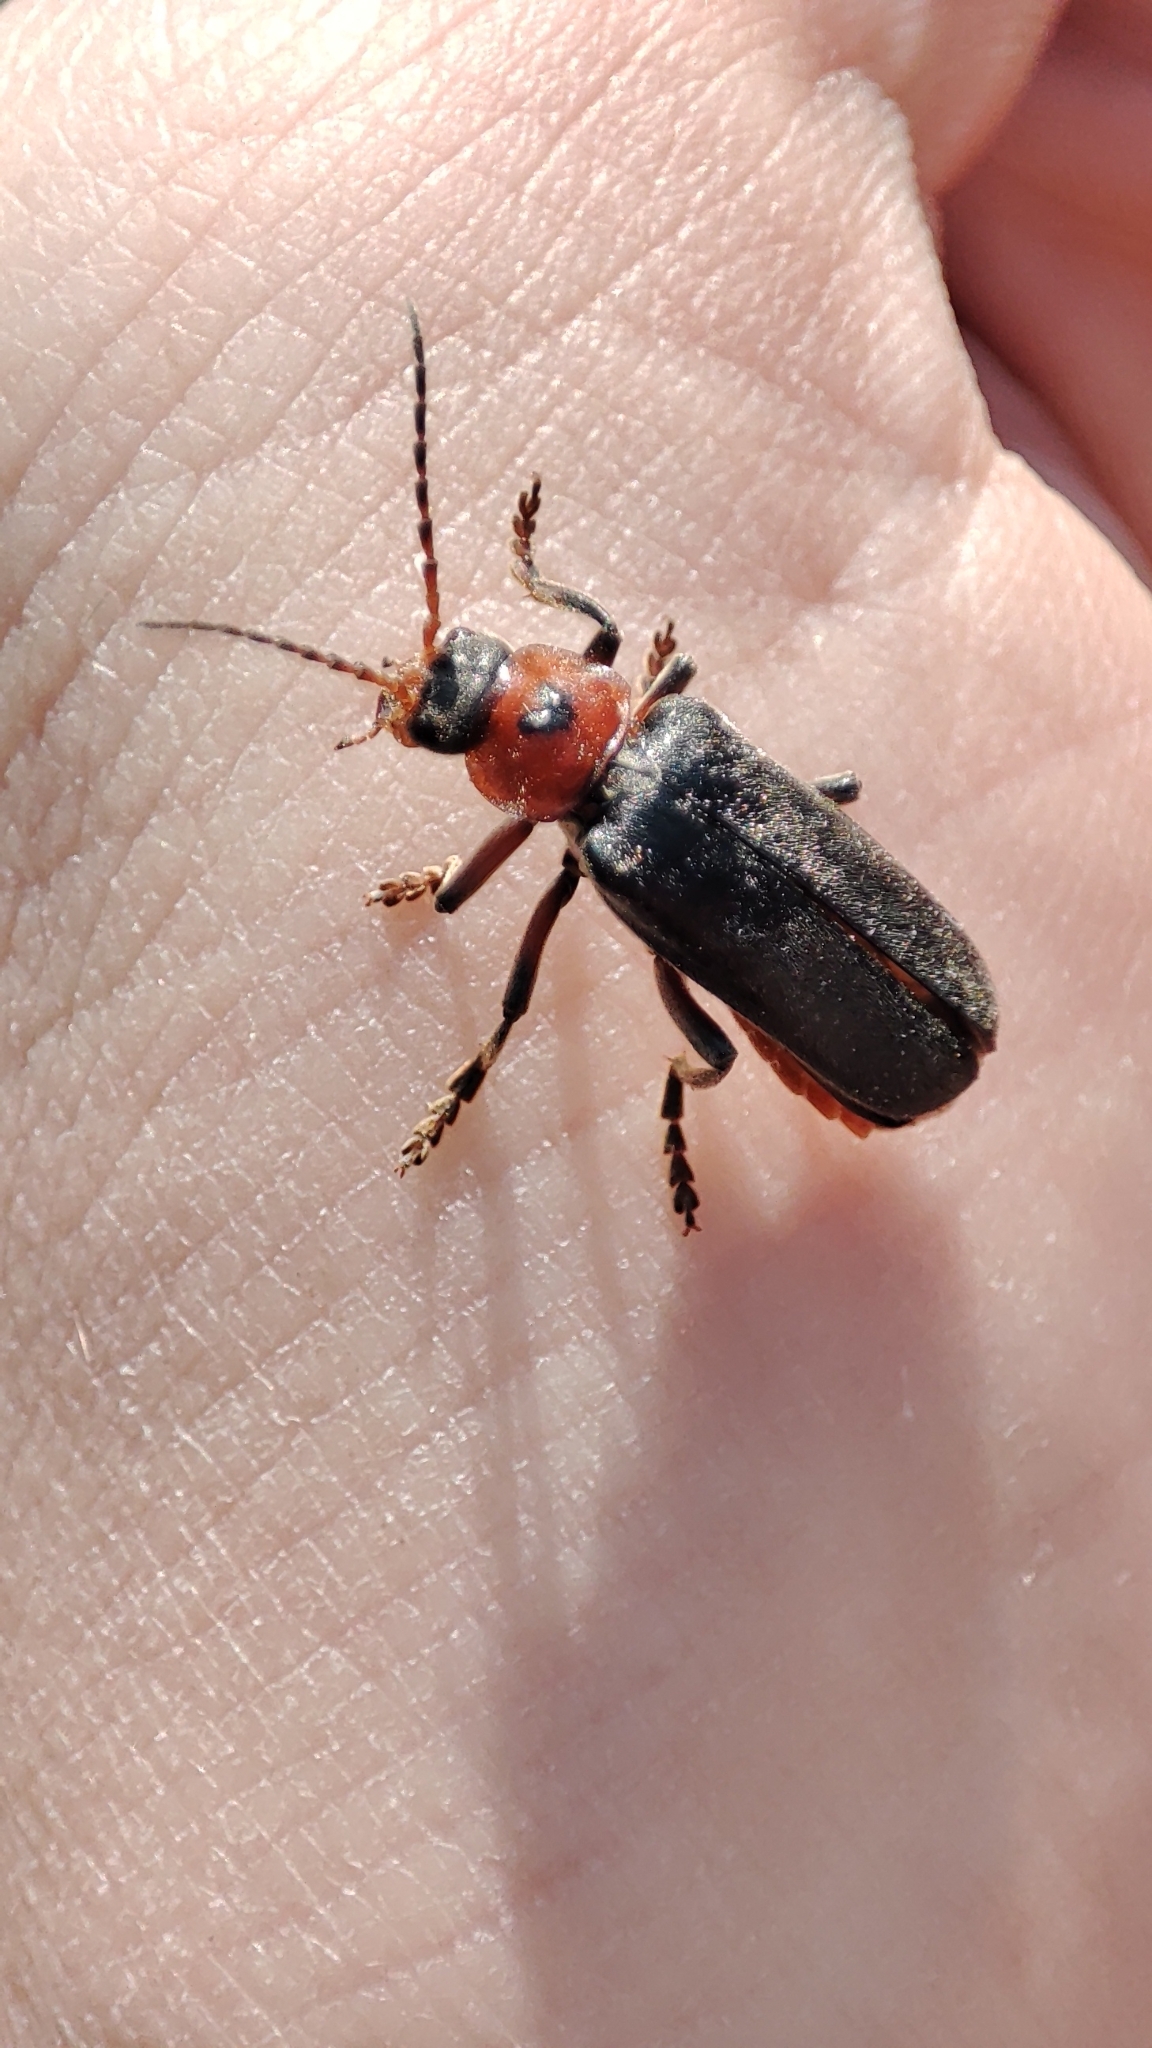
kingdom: Animalia
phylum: Arthropoda
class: Insecta
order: Coleoptera
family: Cantharidae
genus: Cantharis
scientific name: Cantharis rustica
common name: Soldier beetle
